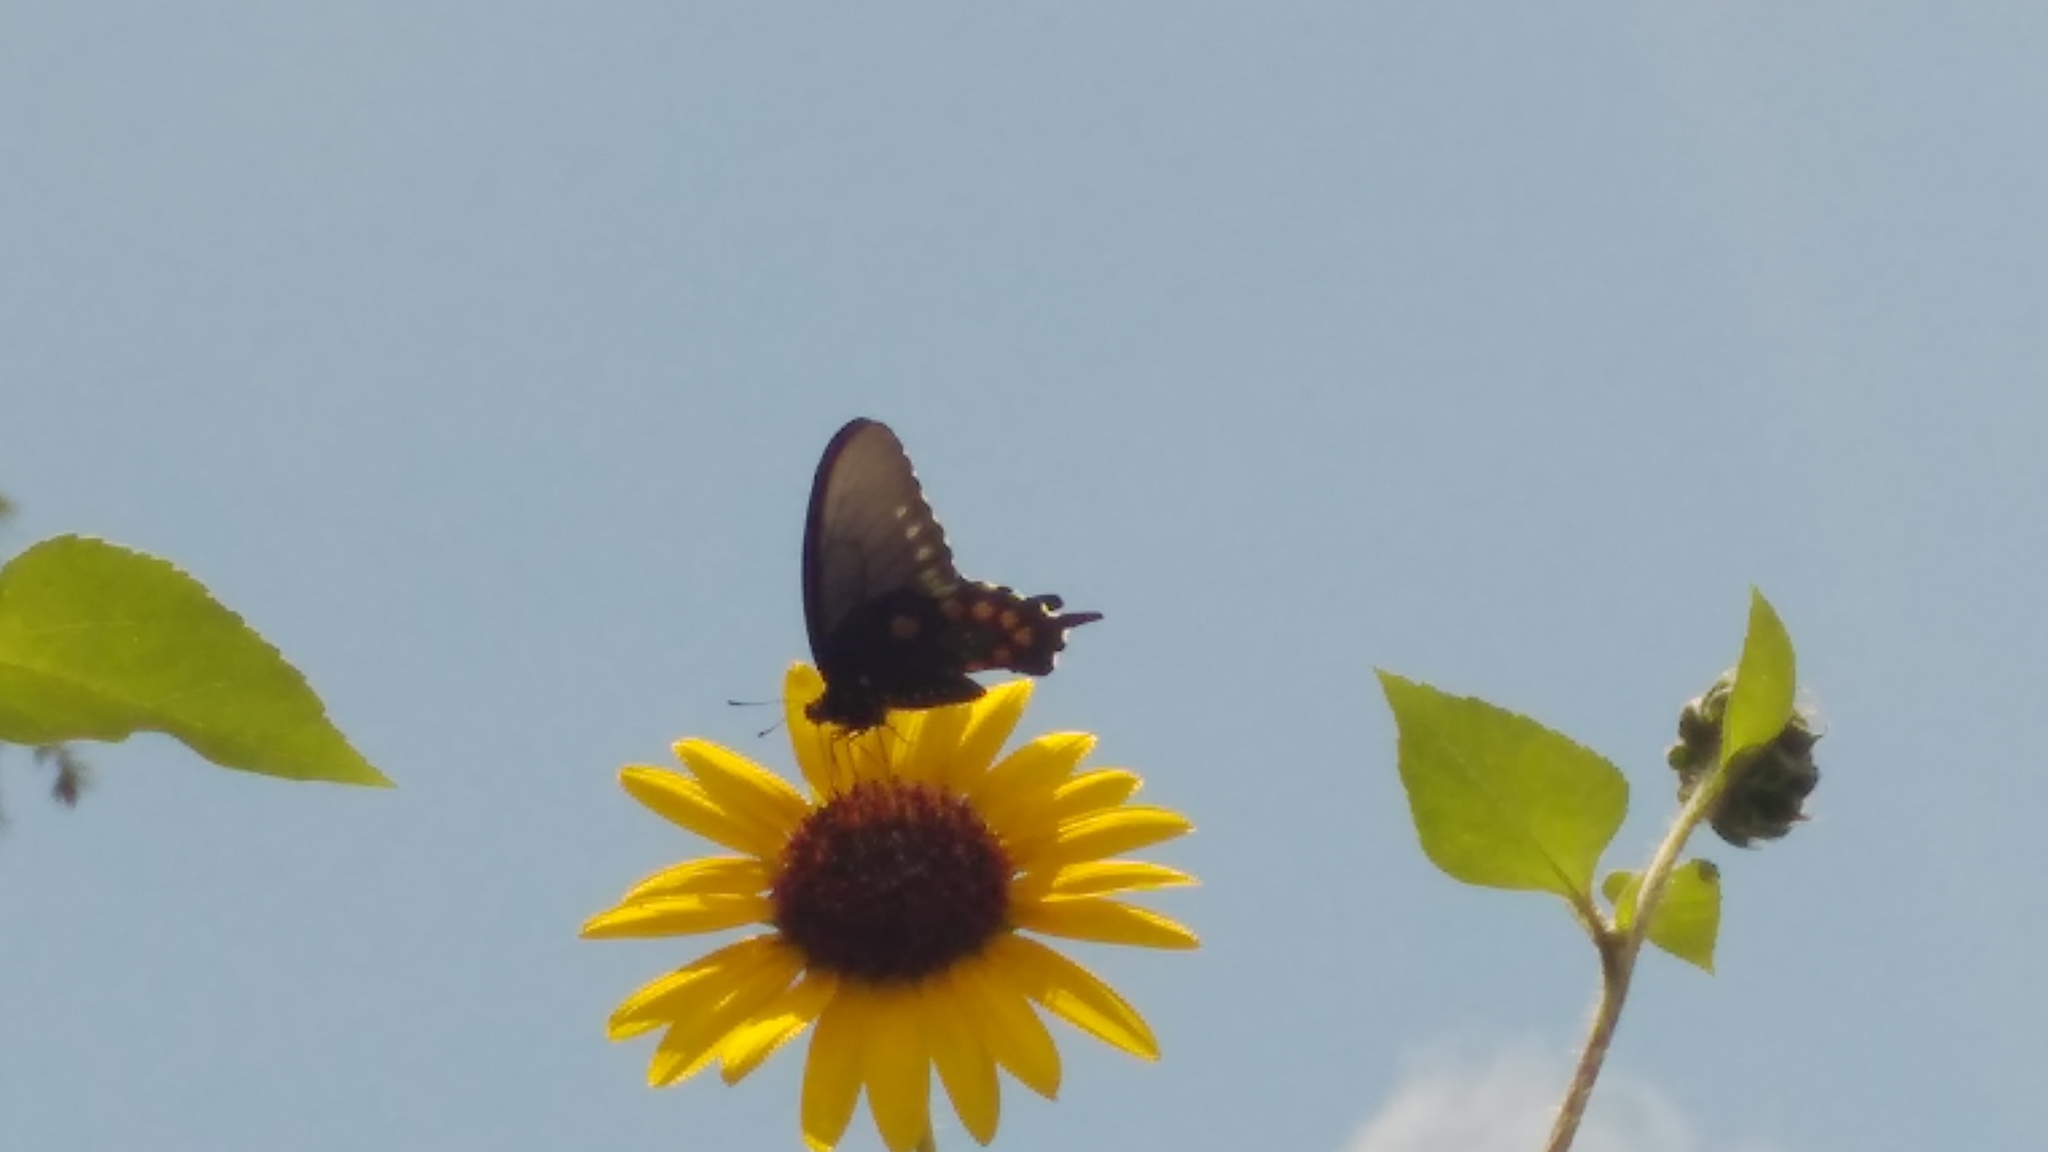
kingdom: Animalia
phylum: Arthropoda
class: Insecta
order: Lepidoptera
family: Papilionidae
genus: Battus
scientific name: Battus philenor
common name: Pipevine swallowtail
